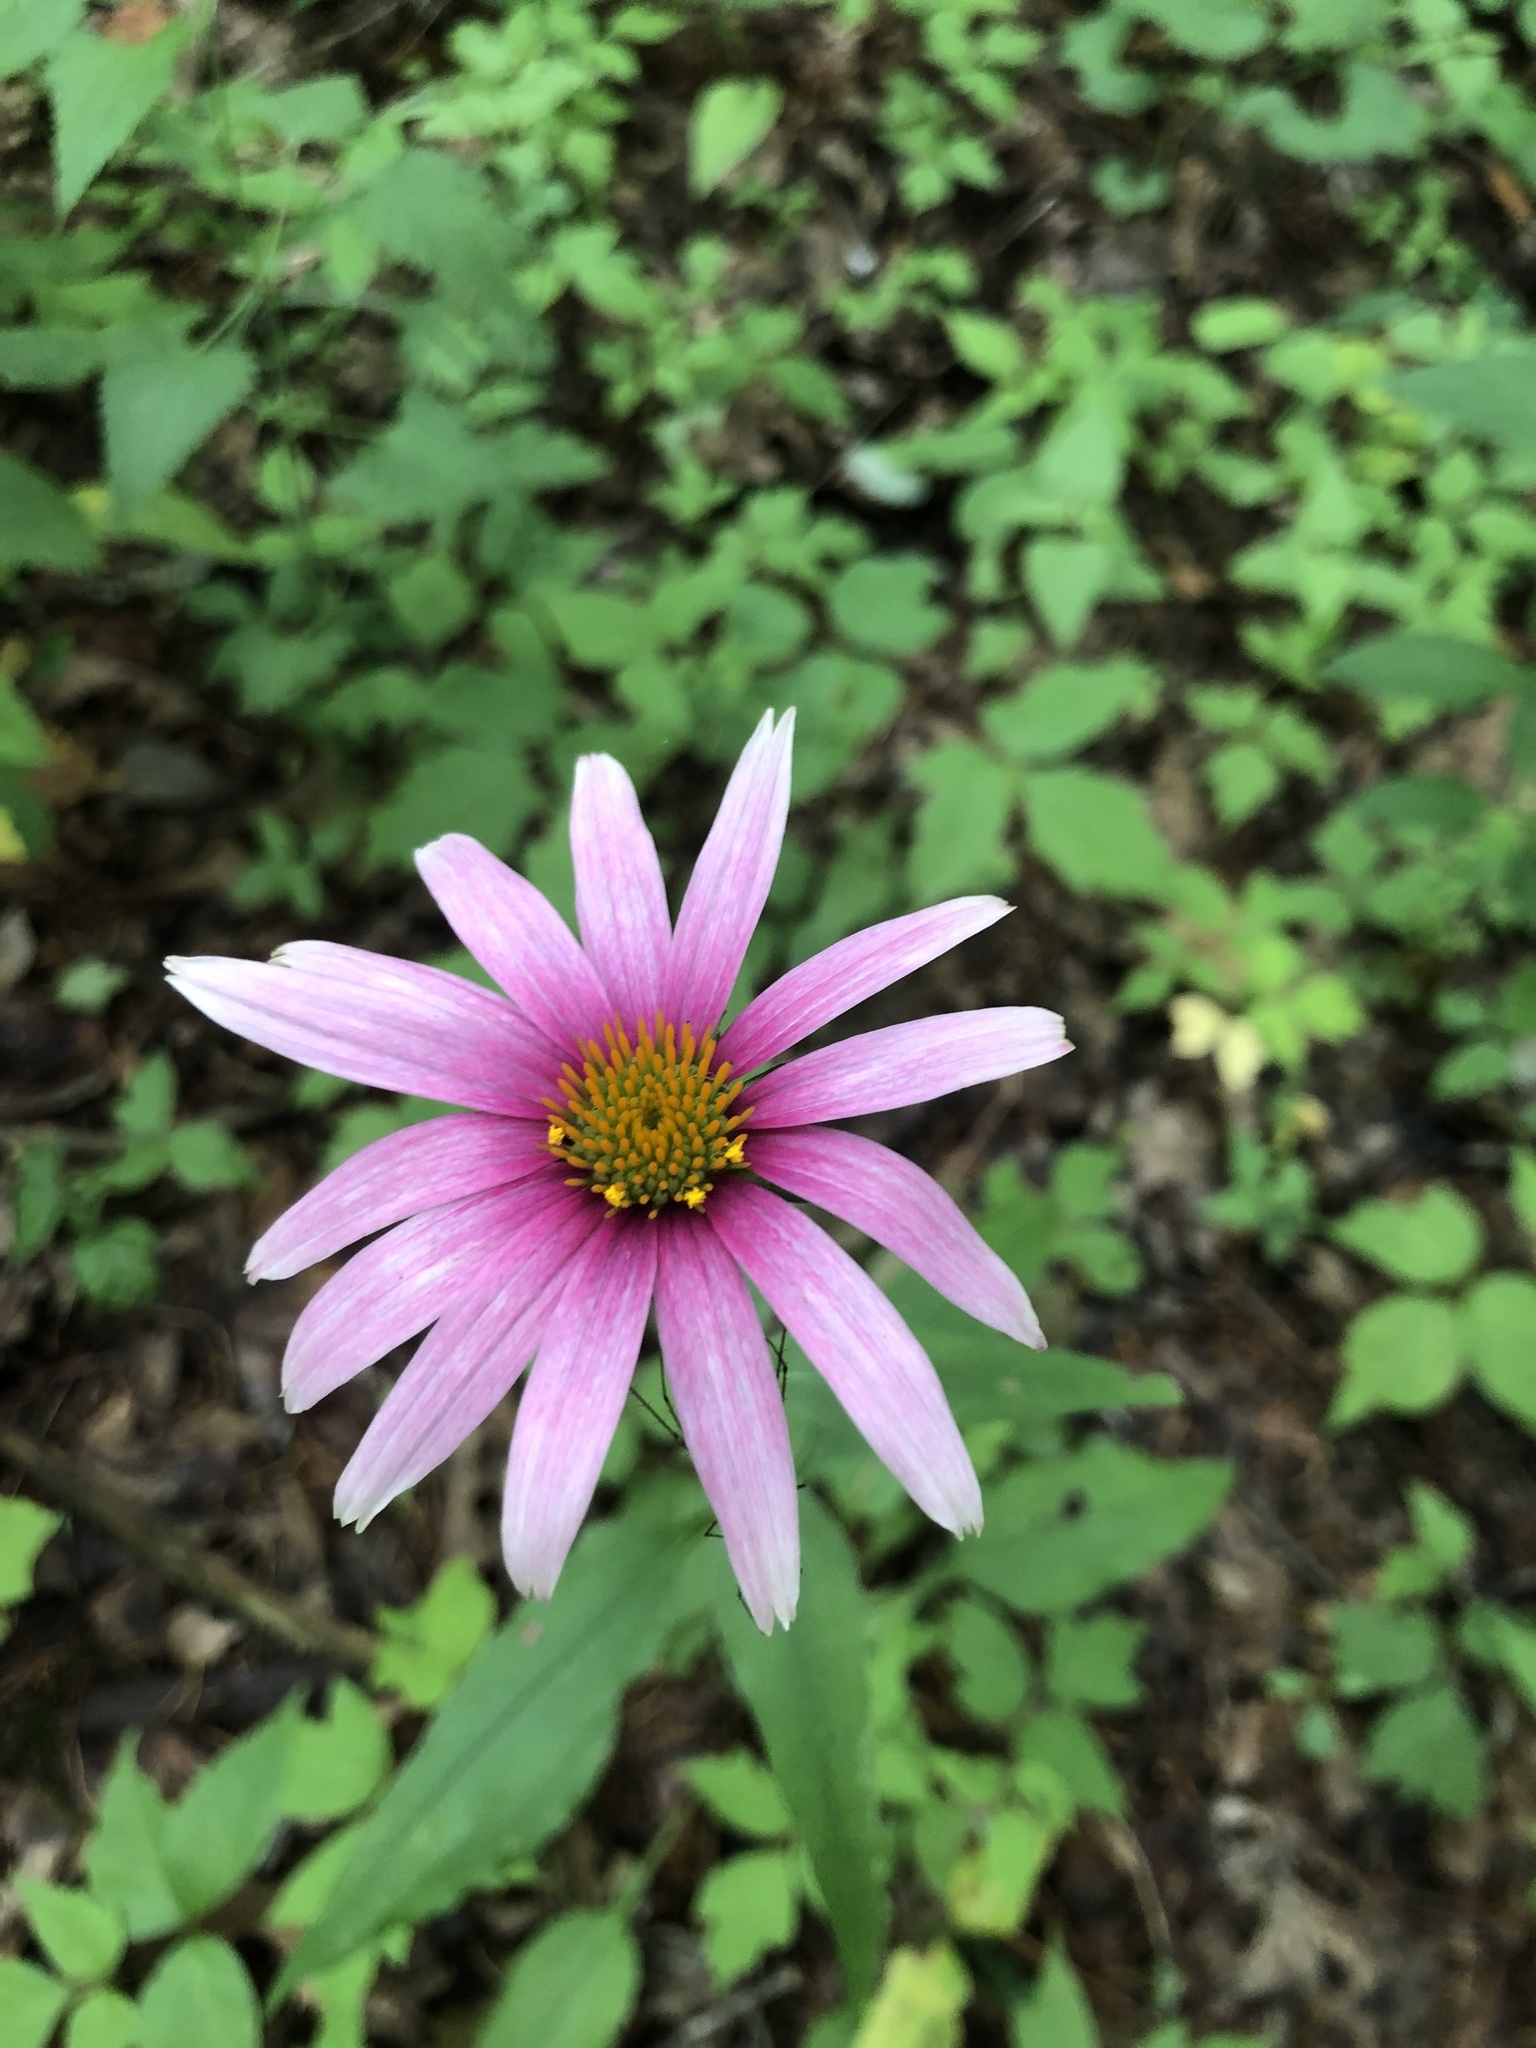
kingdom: Plantae
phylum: Tracheophyta
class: Magnoliopsida
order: Asterales
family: Asteraceae
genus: Echinacea
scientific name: Echinacea purpurea
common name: Broad-leaved purple coneflower
